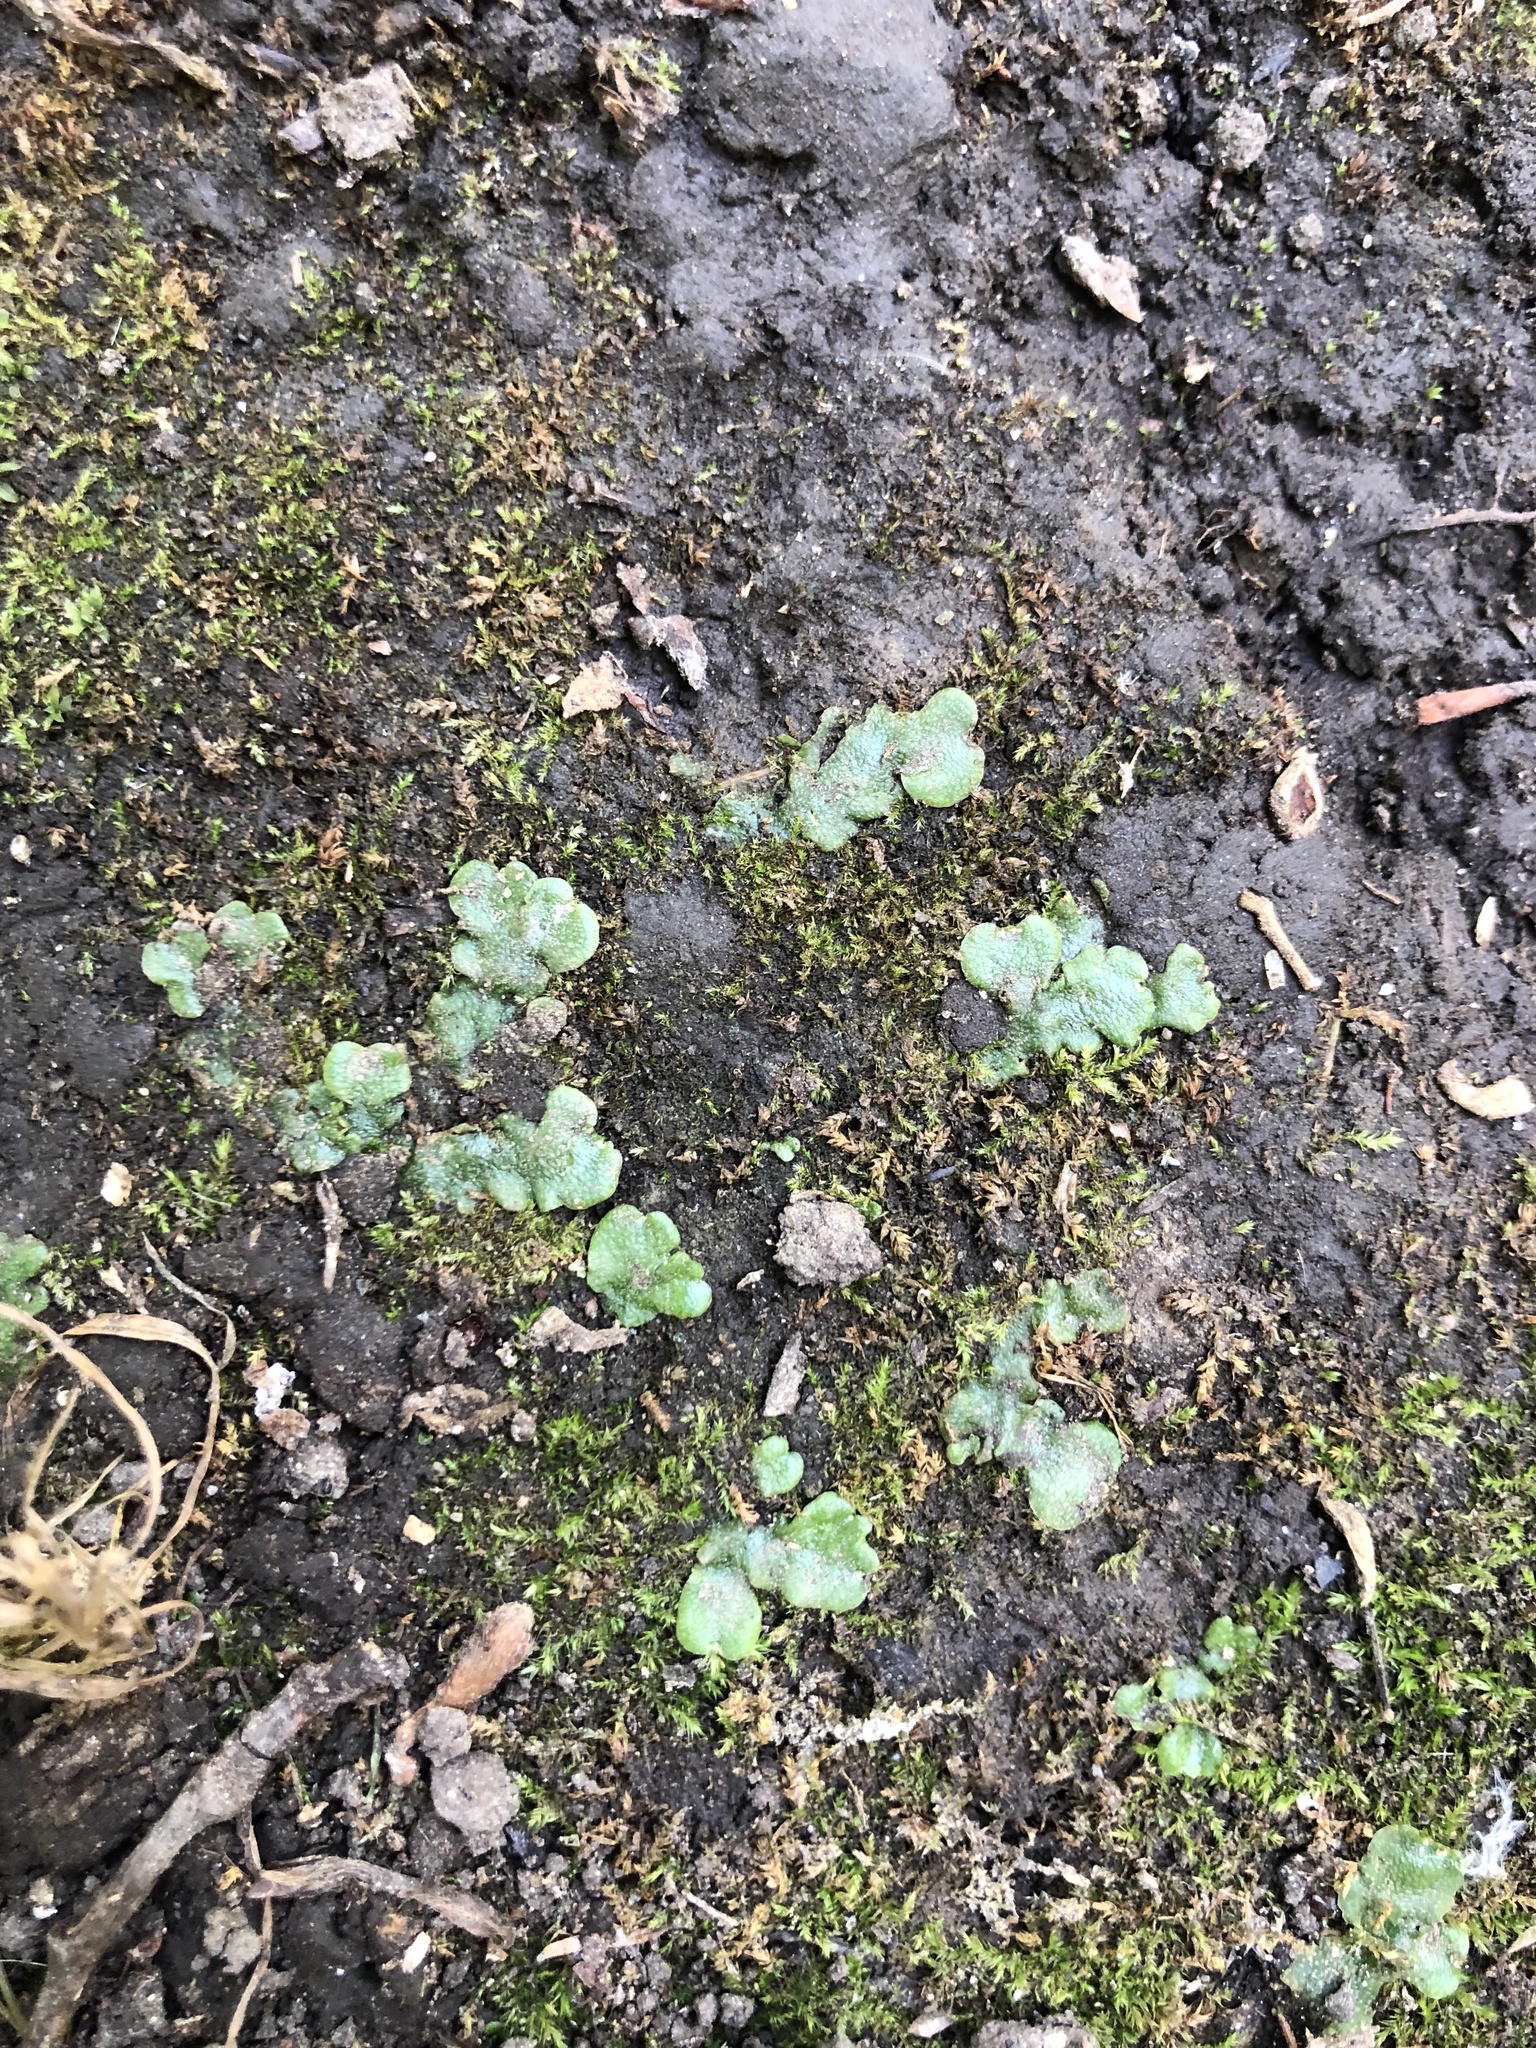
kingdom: Plantae
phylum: Marchantiophyta
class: Marchantiopsida
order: Marchantiales
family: Marchantiaceae
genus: Marchantia
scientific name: Marchantia polymorpha
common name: Common liverwort
